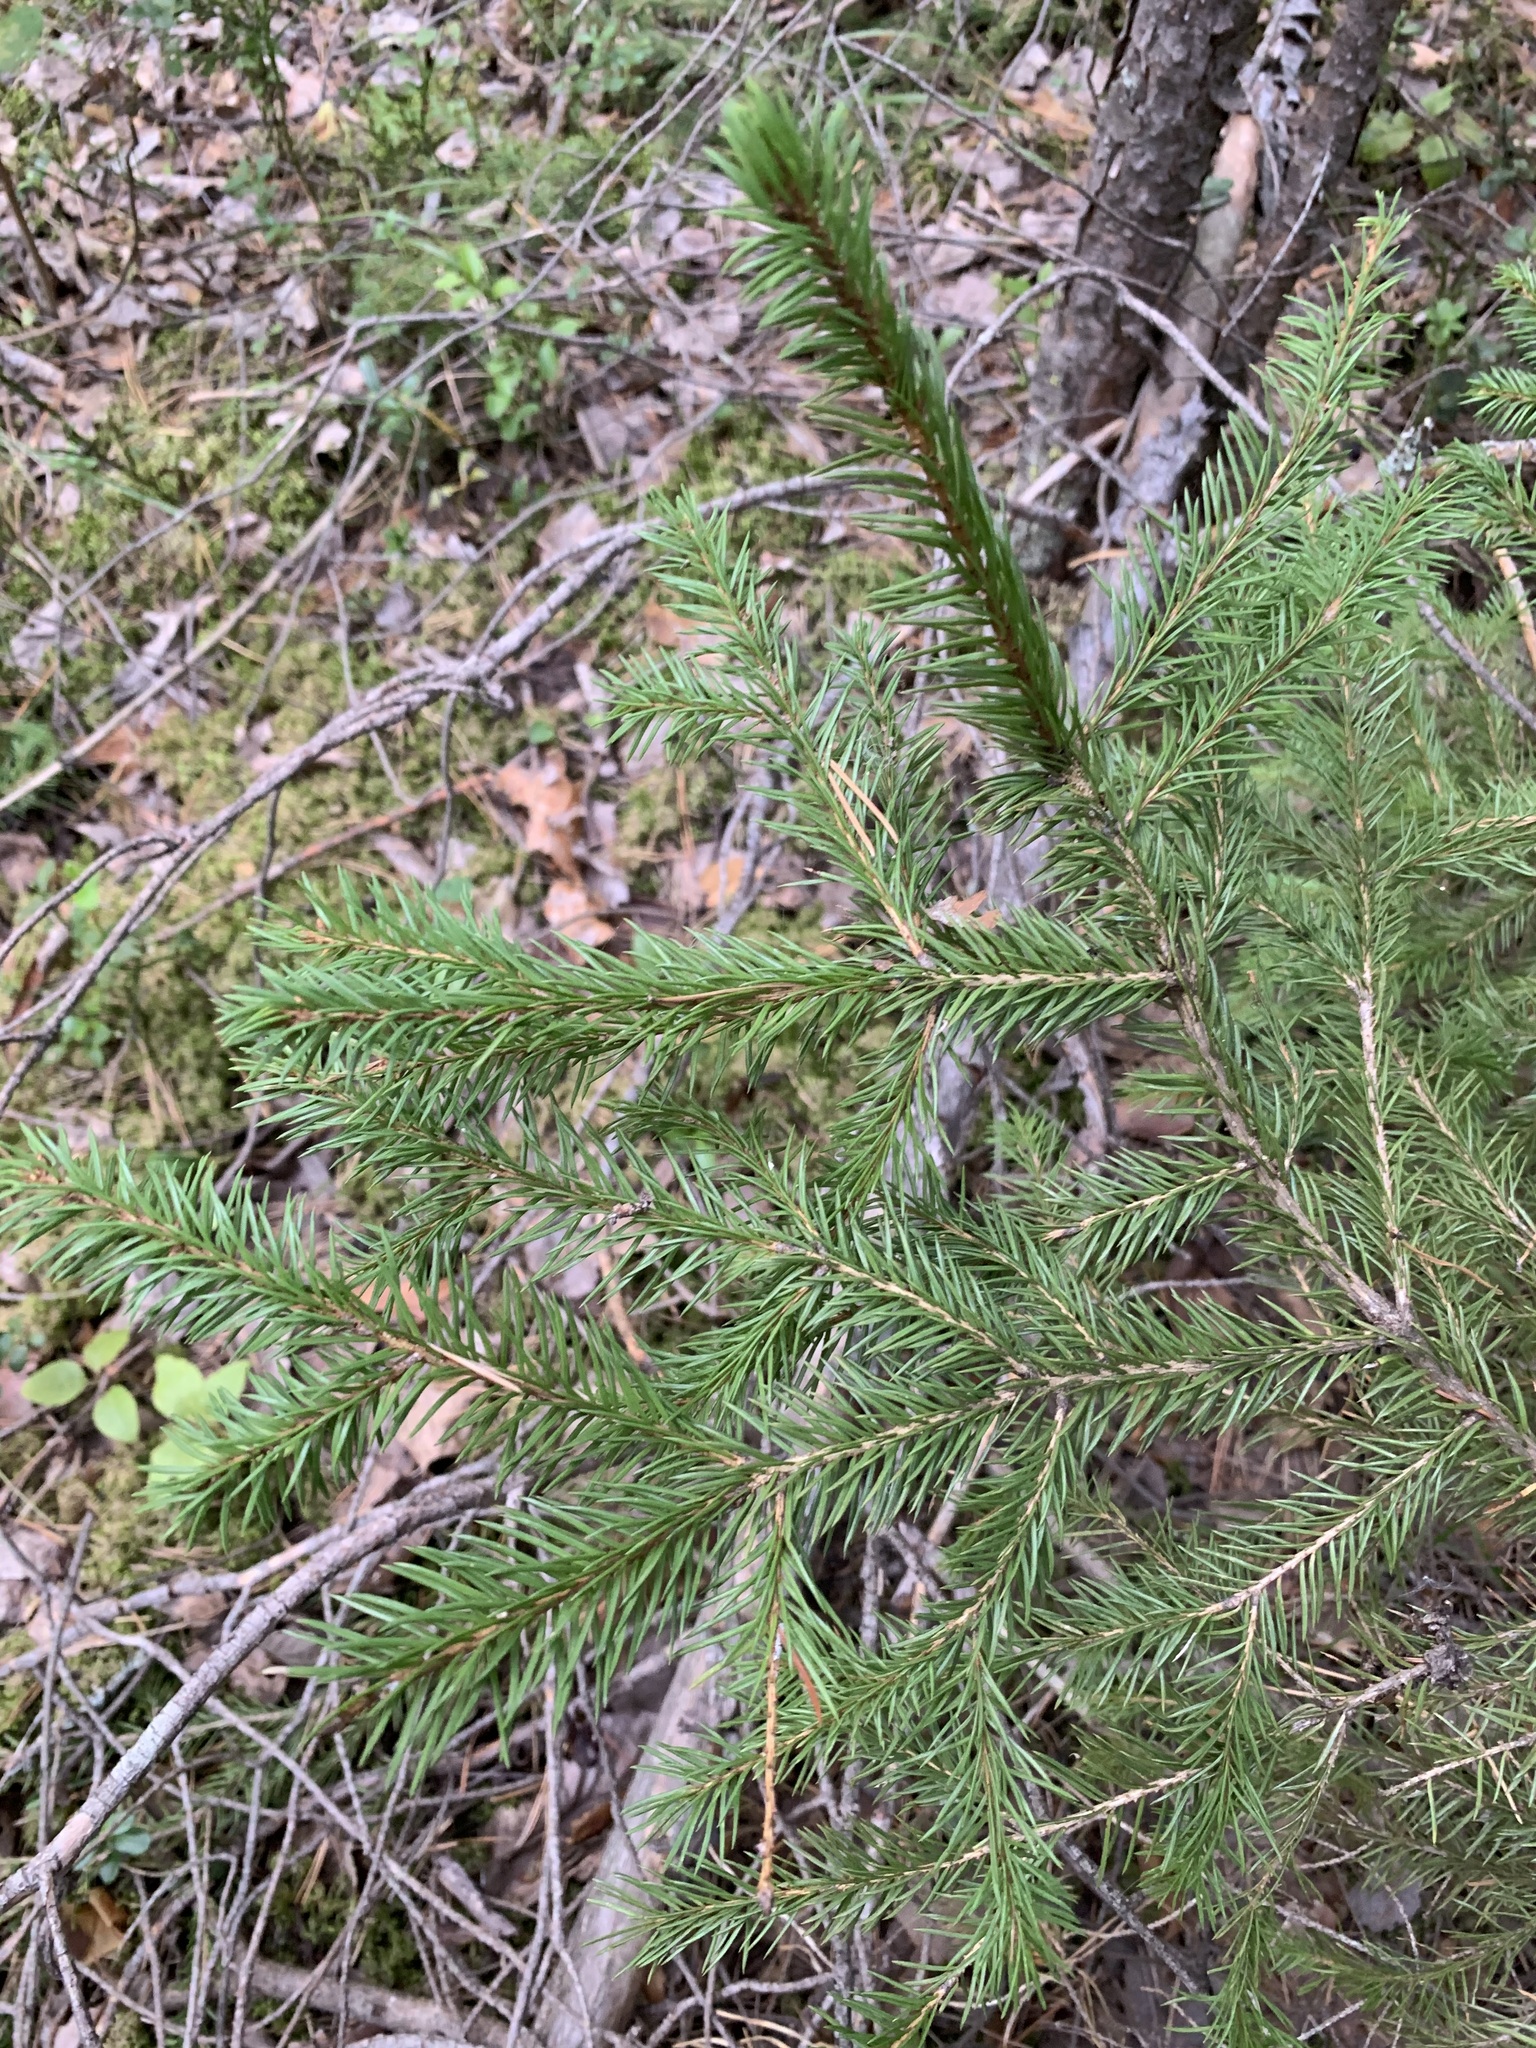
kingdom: Plantae
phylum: Tracheophyta
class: Pinopsida
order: Pinales
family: Pinaceae
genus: Picea
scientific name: Picea obovata
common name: Siberian spruce
